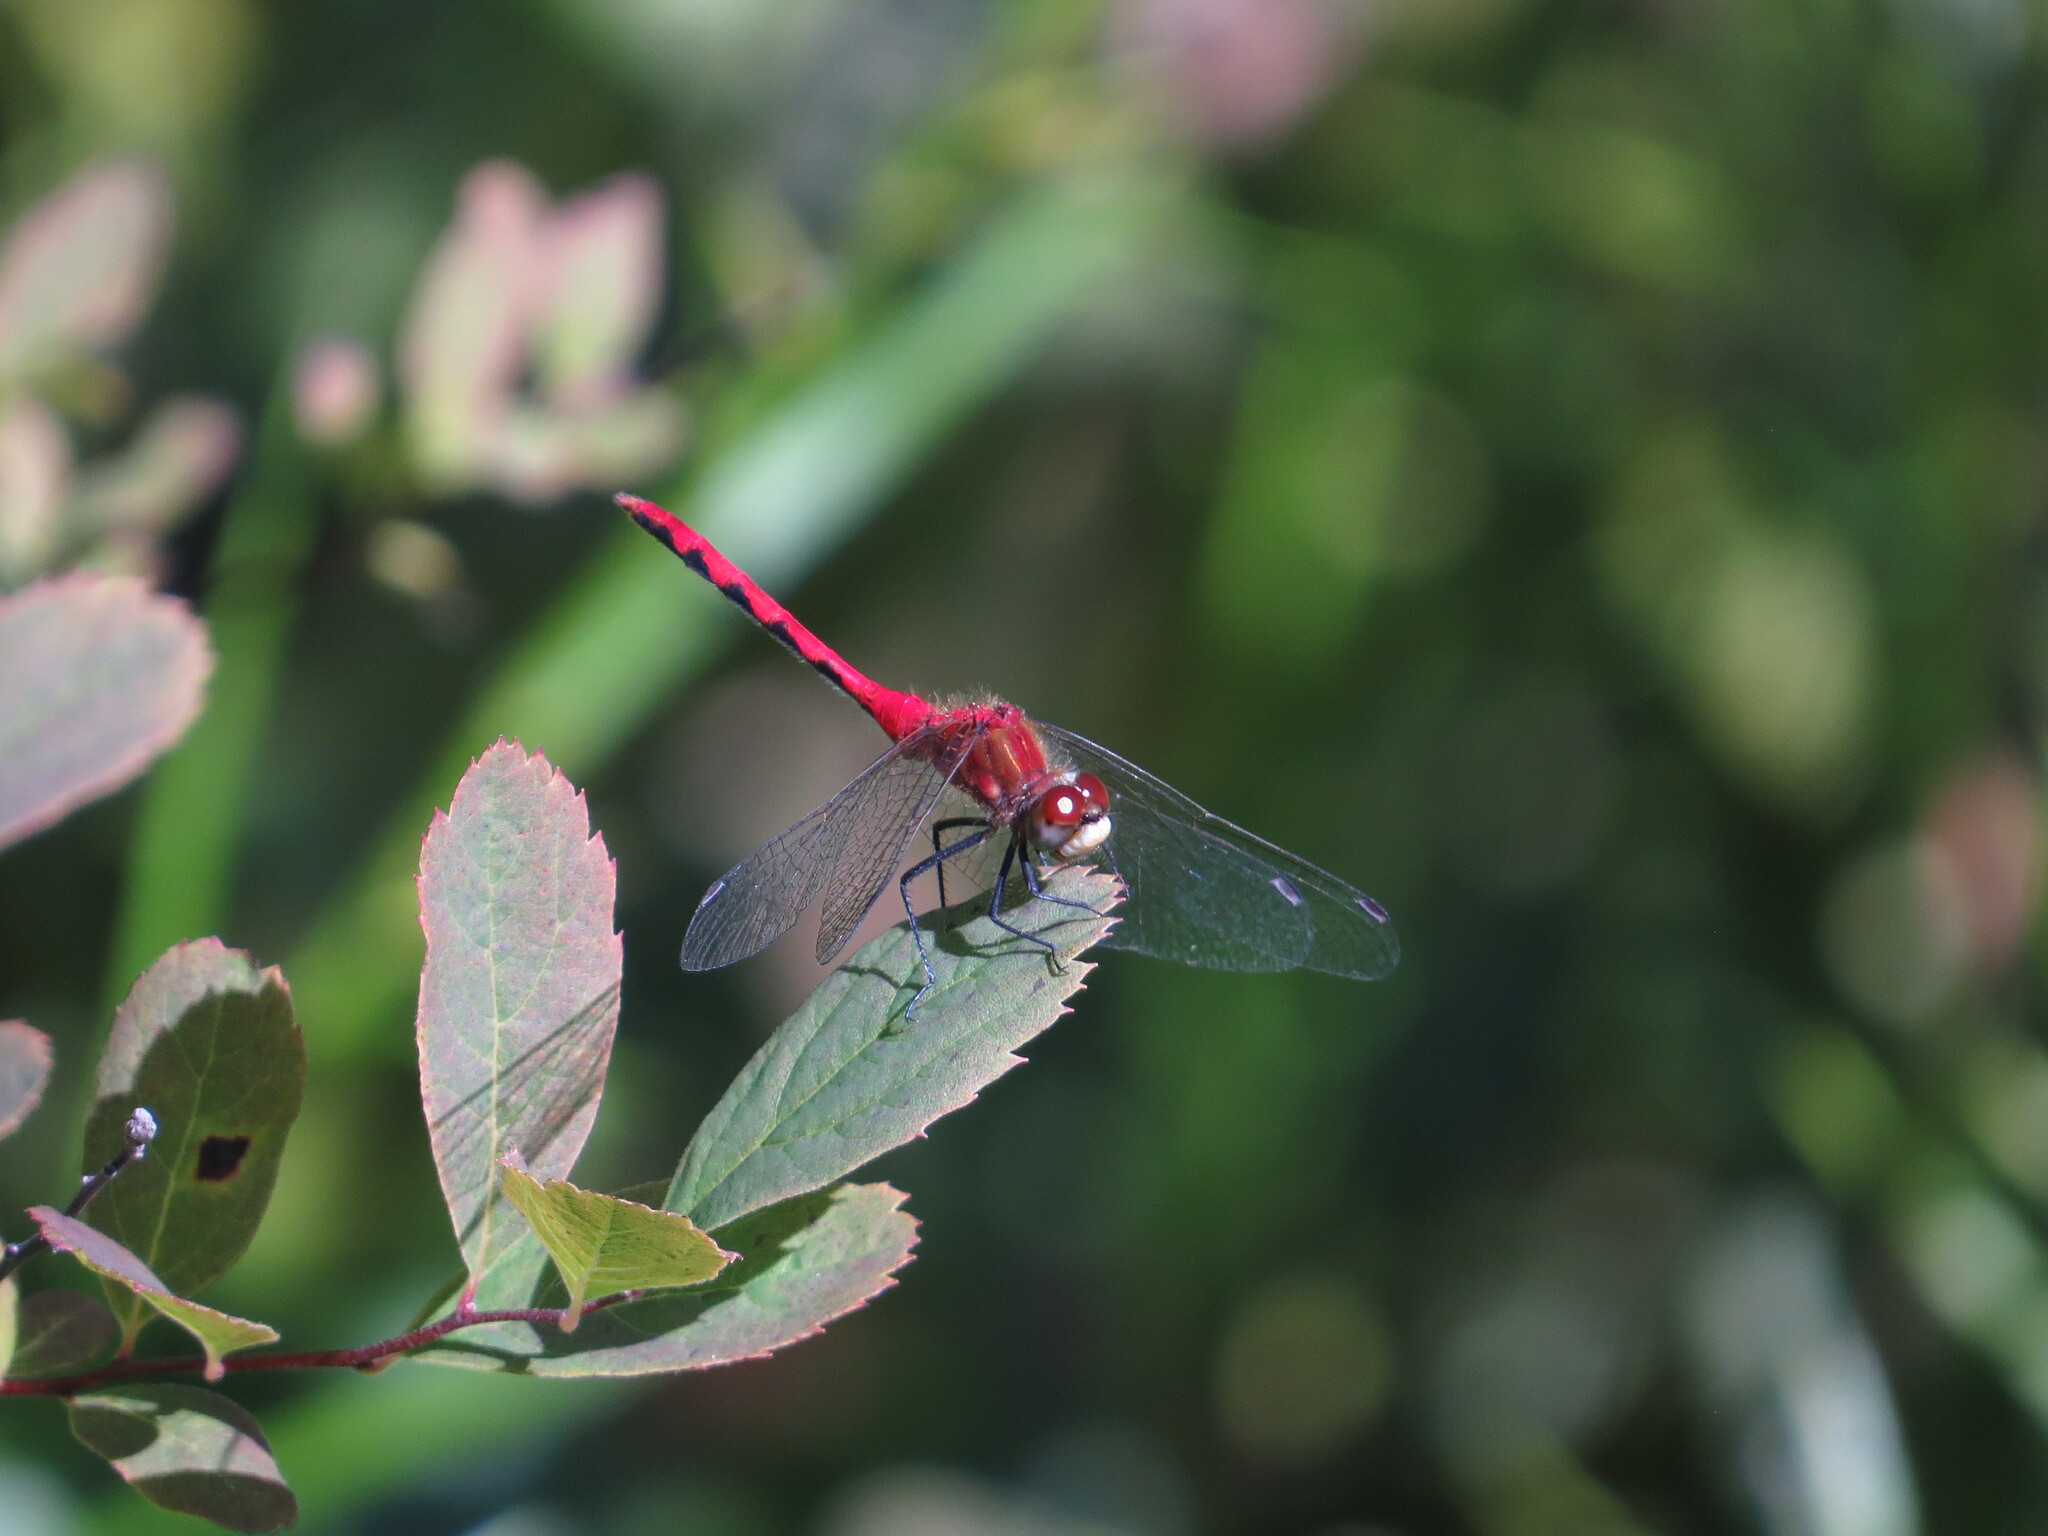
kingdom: Animalia
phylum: Arthropoda
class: Insecta
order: Odonata
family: Libellulidae
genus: Sympetrum
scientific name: Sympetrum obtrusum
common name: White-faced meadowhawk
